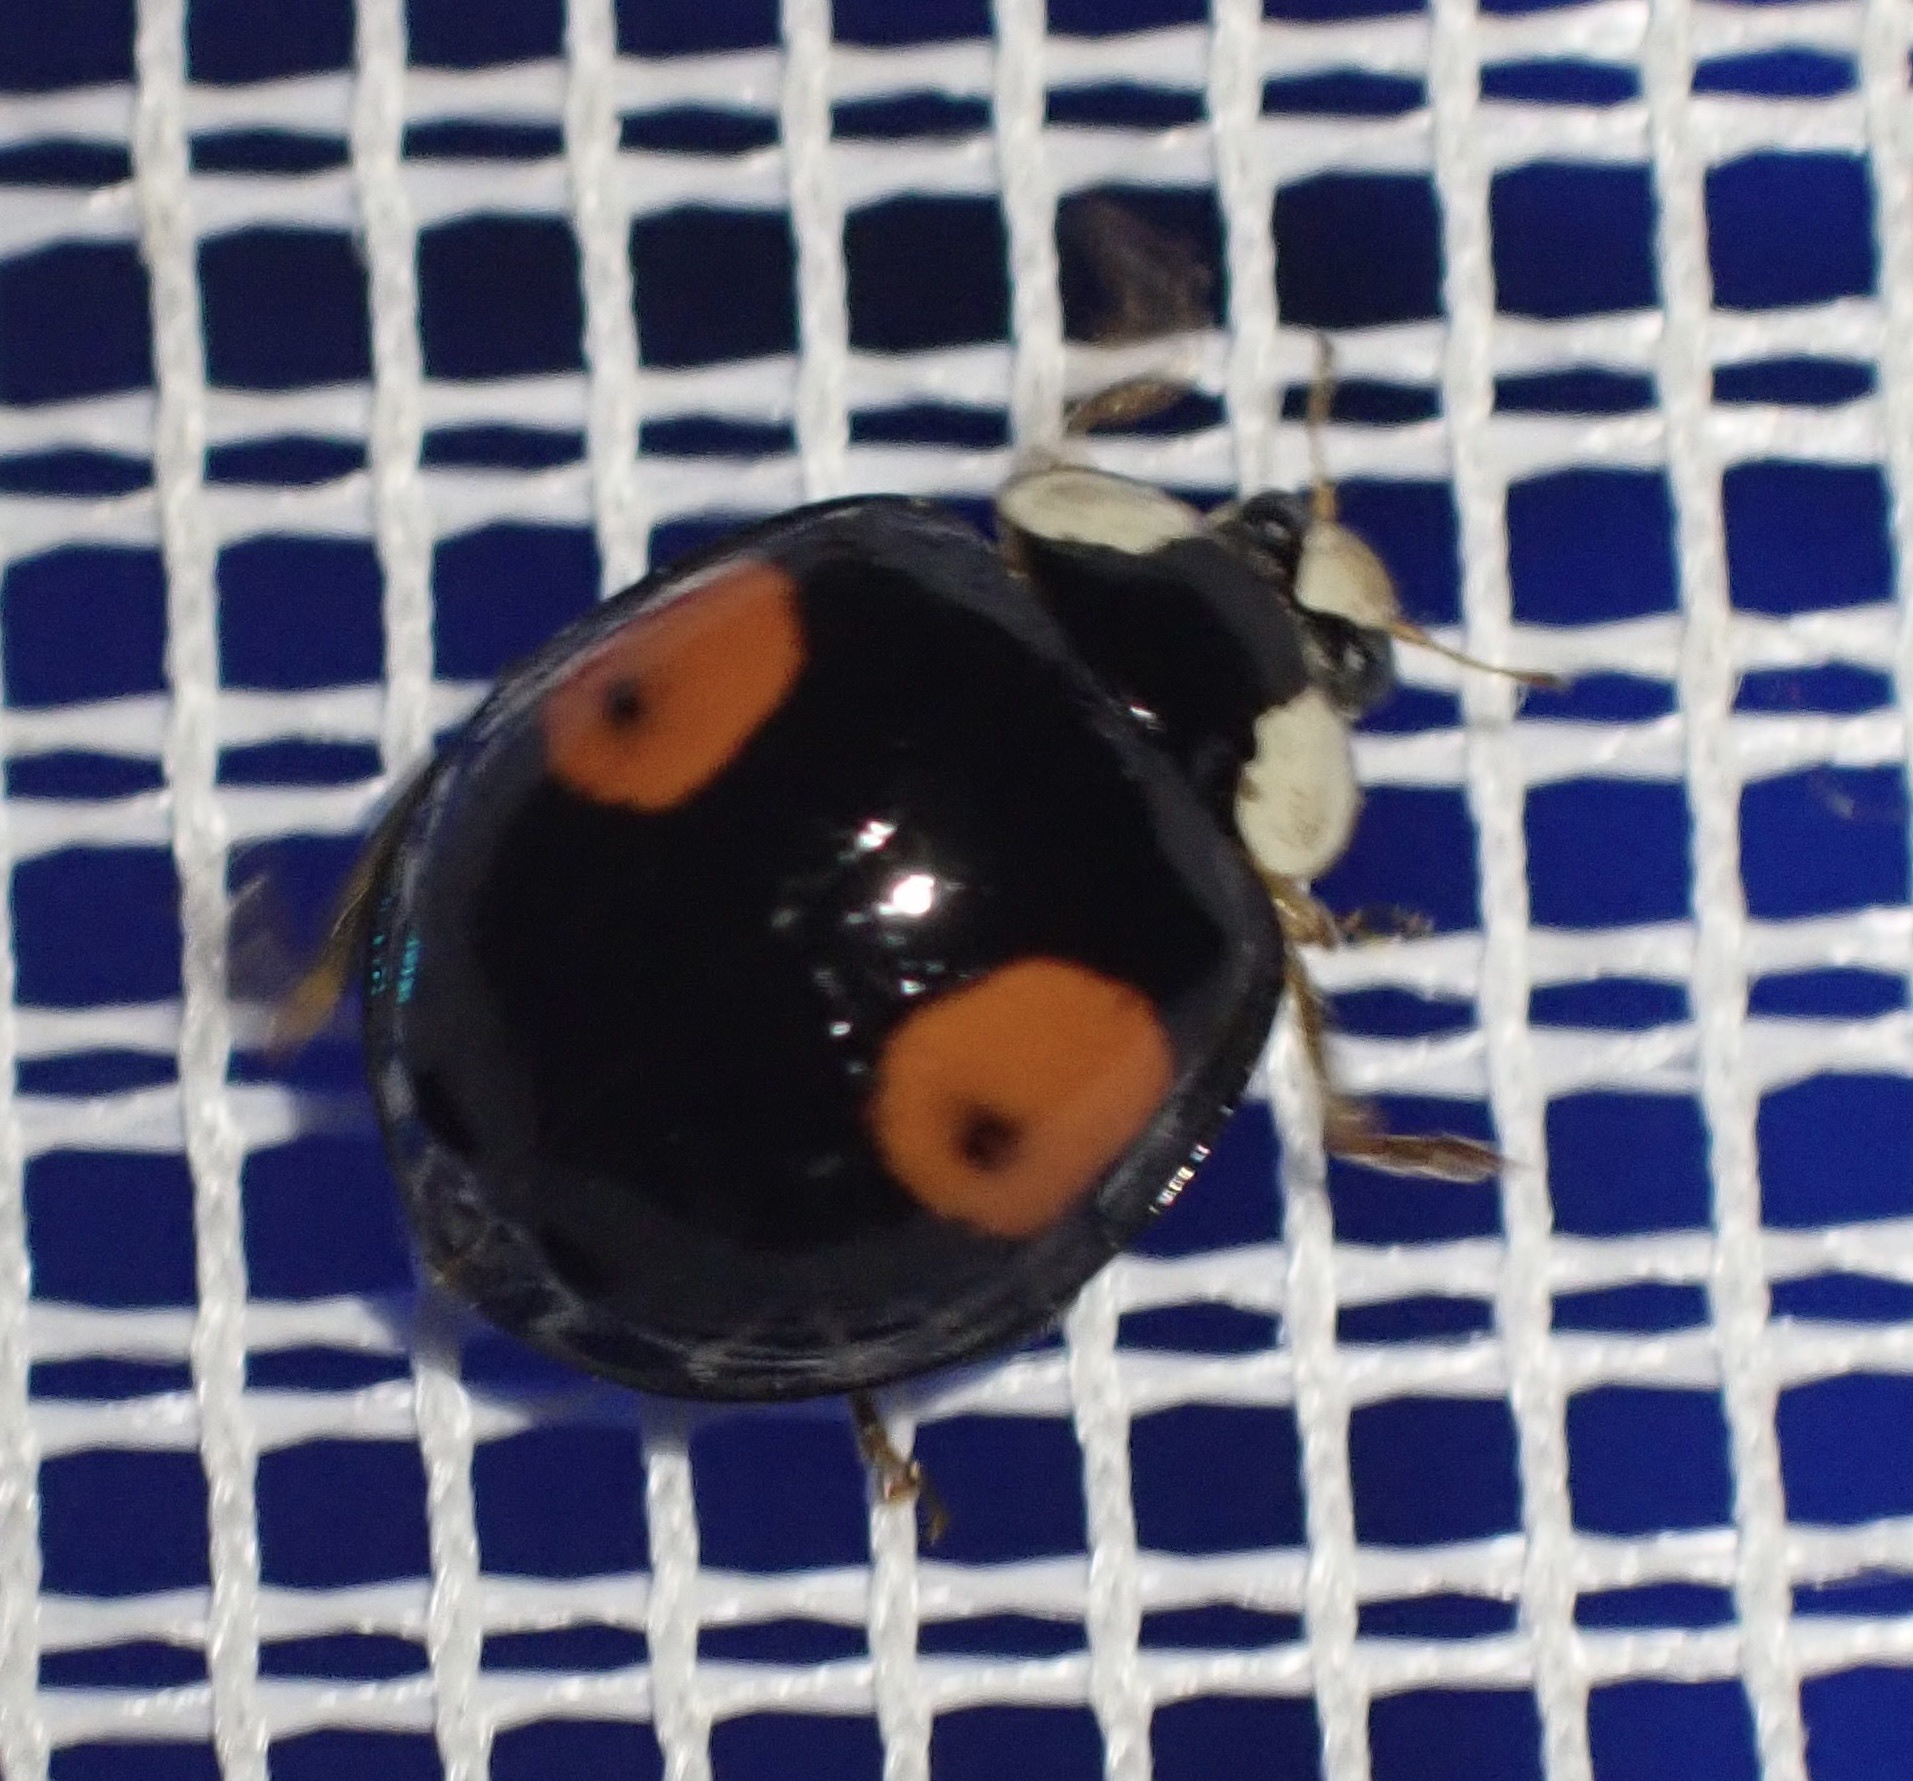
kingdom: Animalia
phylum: Arthropoda
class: Insecta
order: Coleoptera
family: Coccinellidae
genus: Harmonia
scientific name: Harmonia axyridis
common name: Harlequin ladybird
